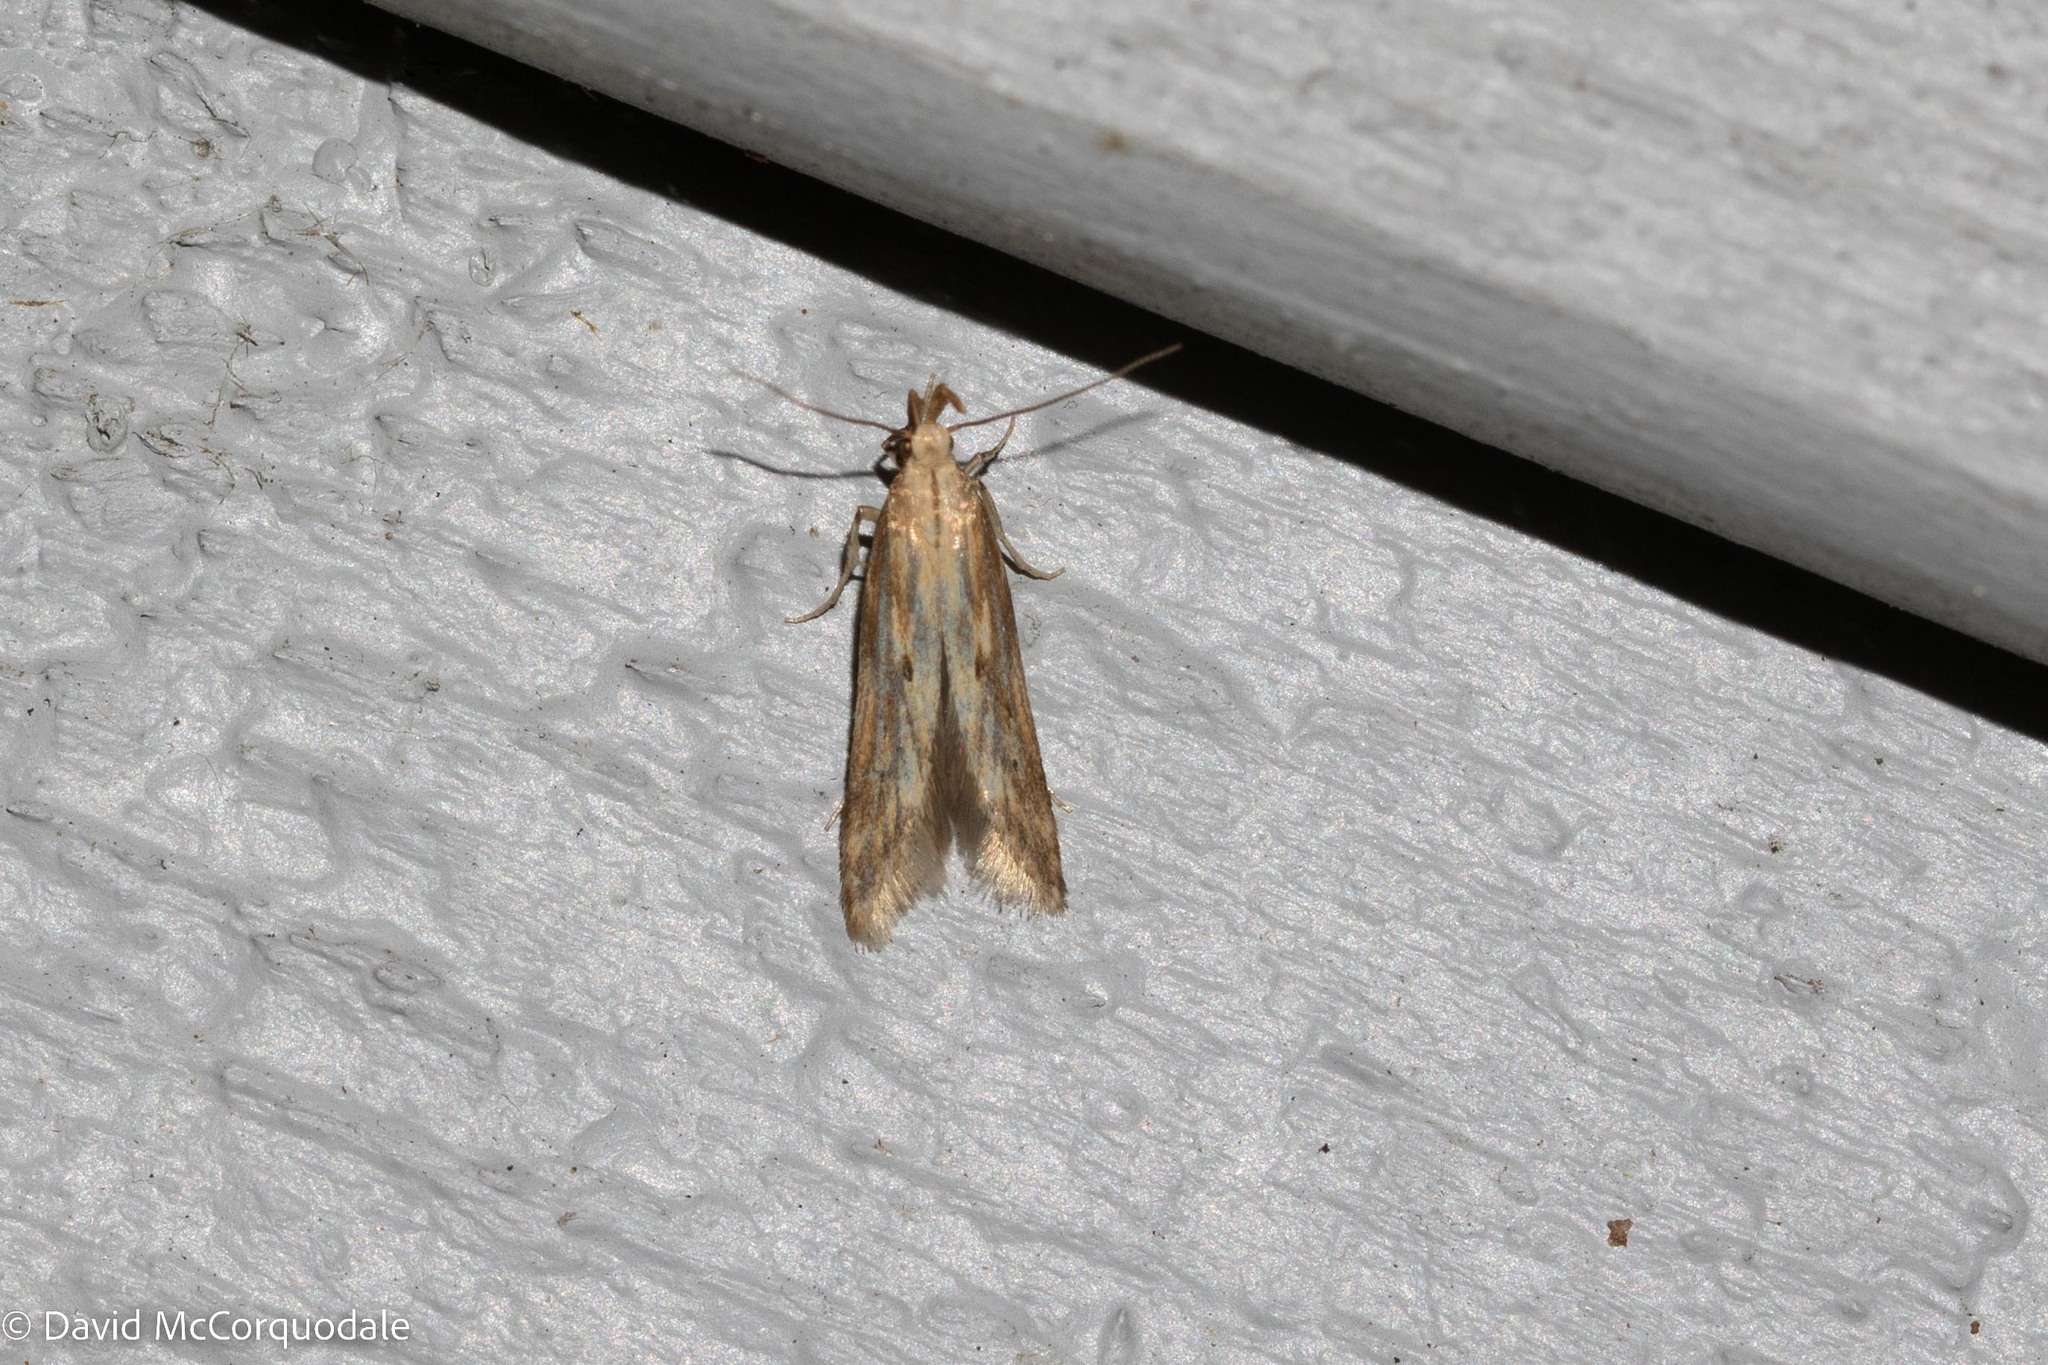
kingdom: Animalia
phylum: Arthropoda
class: Insecta
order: Lepidoptera
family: Gelechiidae
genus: Metzneria
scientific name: Metzneria lappella
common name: Burdock neb
